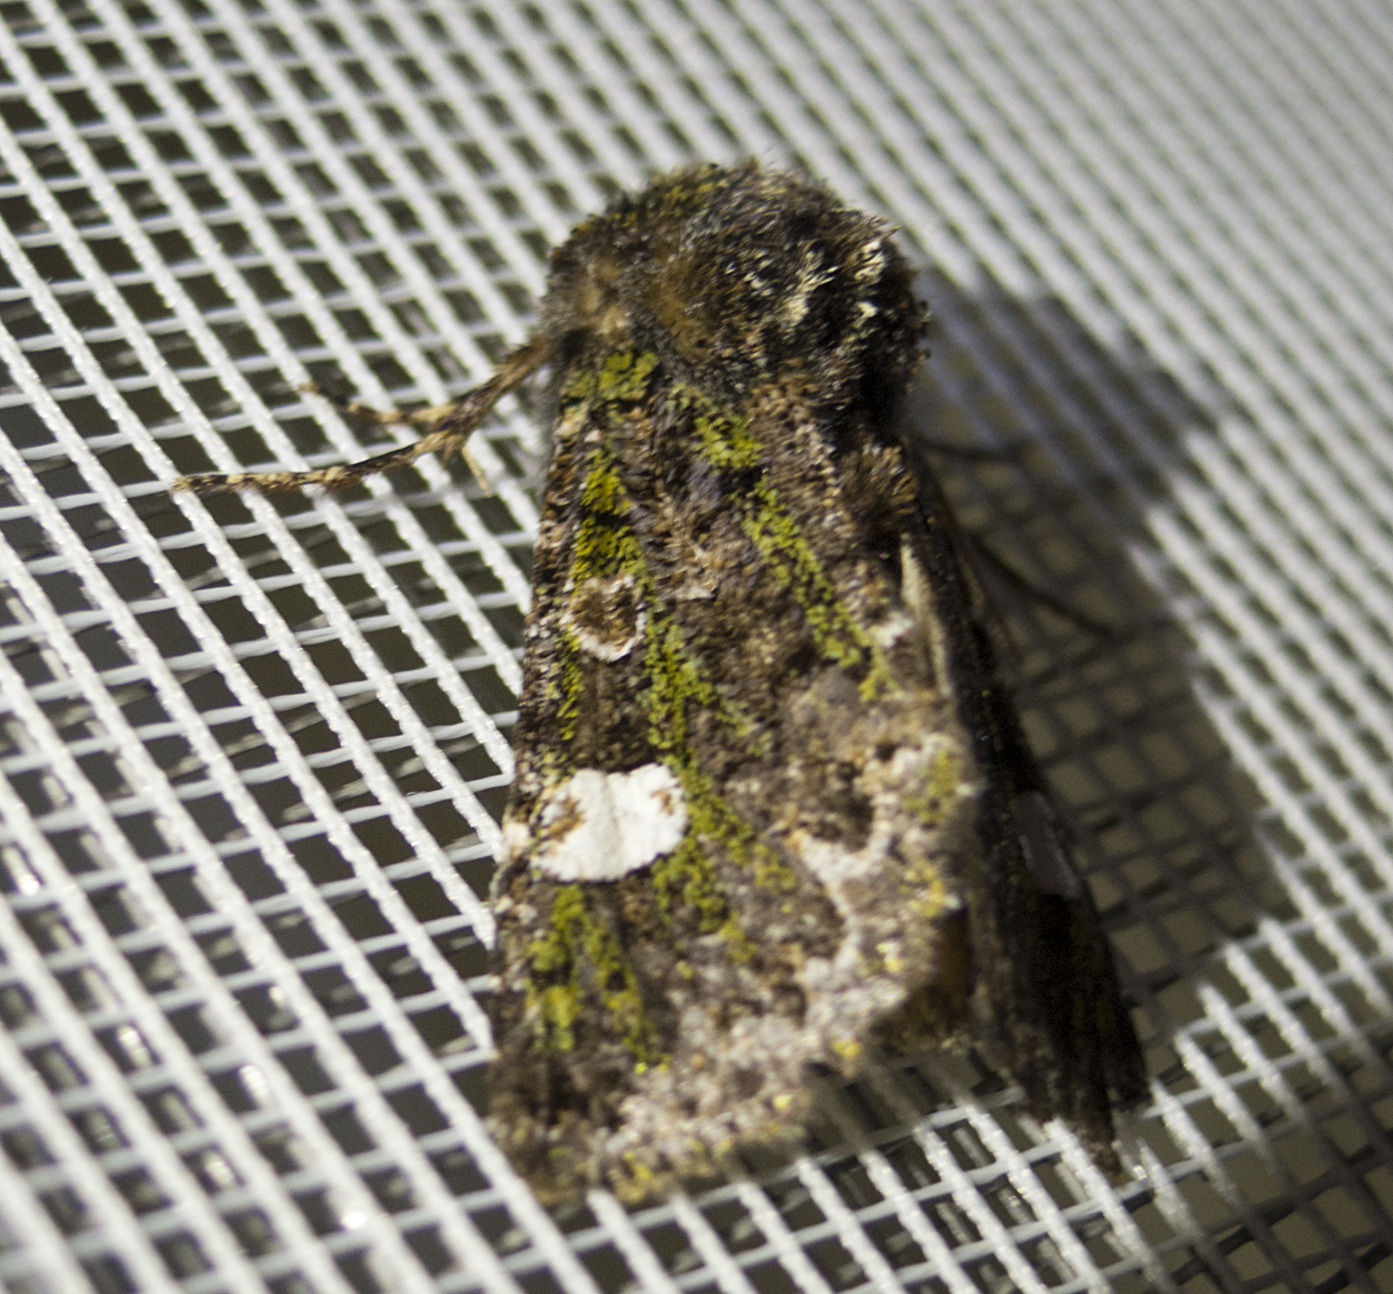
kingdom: Animalia
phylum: Arthropoda
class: Insecta
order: Lepidoptera
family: Noctuidae
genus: Valeria
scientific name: Valeria oleagina
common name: Green-brindled dot
